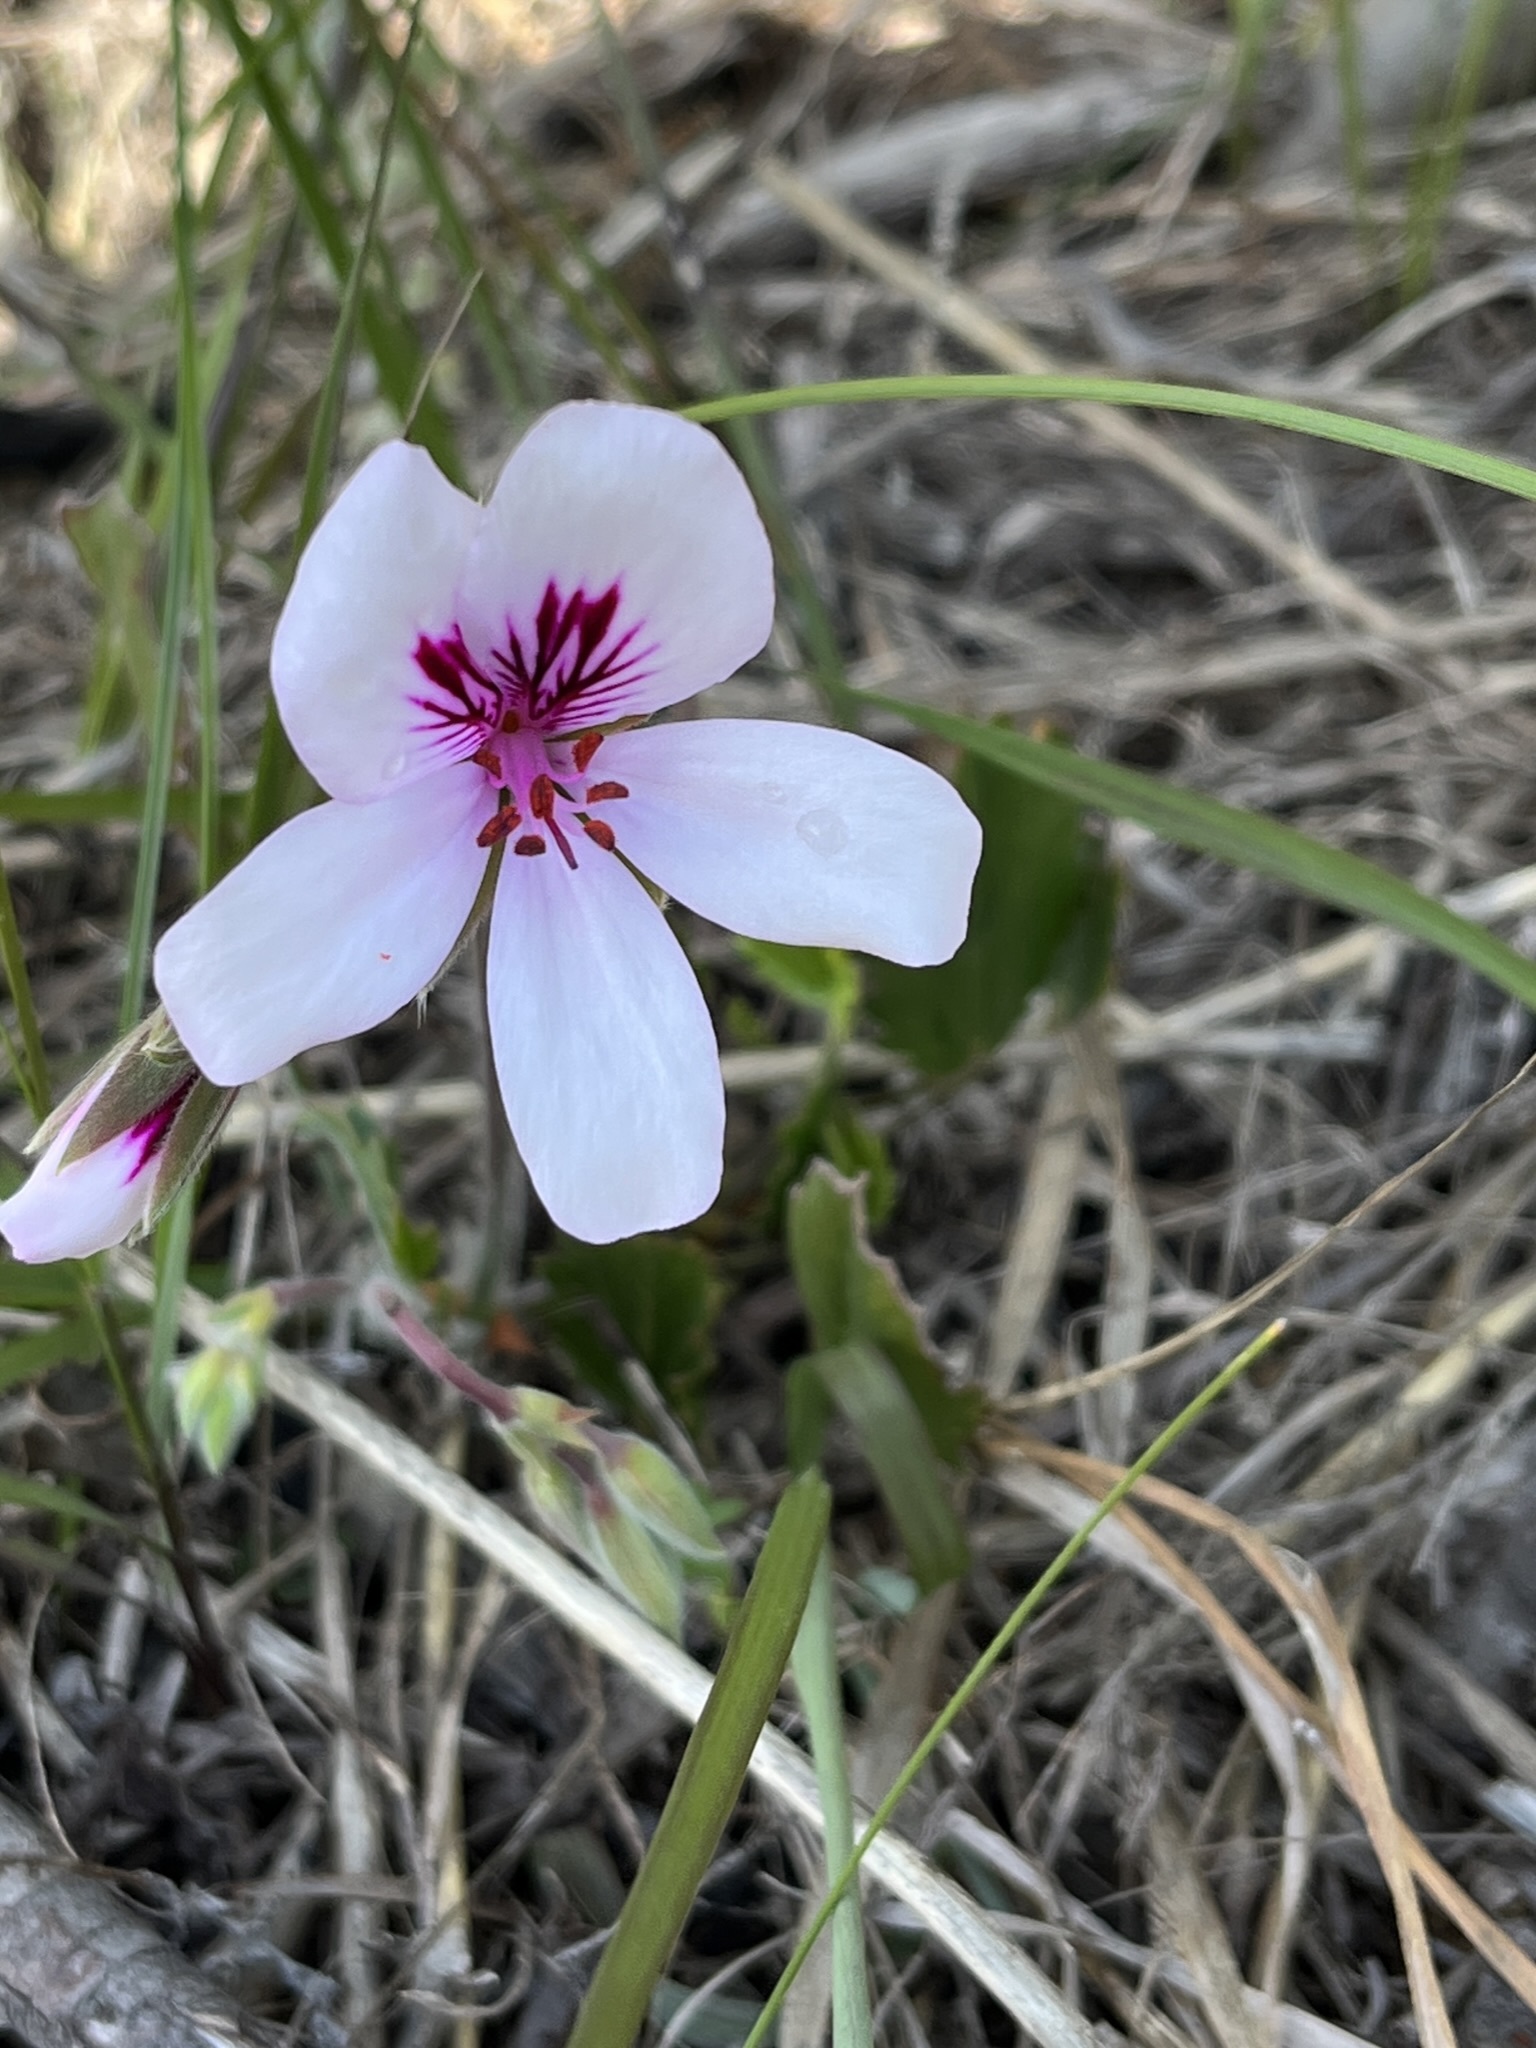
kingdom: Plantae
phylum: Tracheophyta
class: Magnoliopsida
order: Geraniales
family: Geraniaceae
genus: Pelargonium
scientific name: Pelargonium elegans
